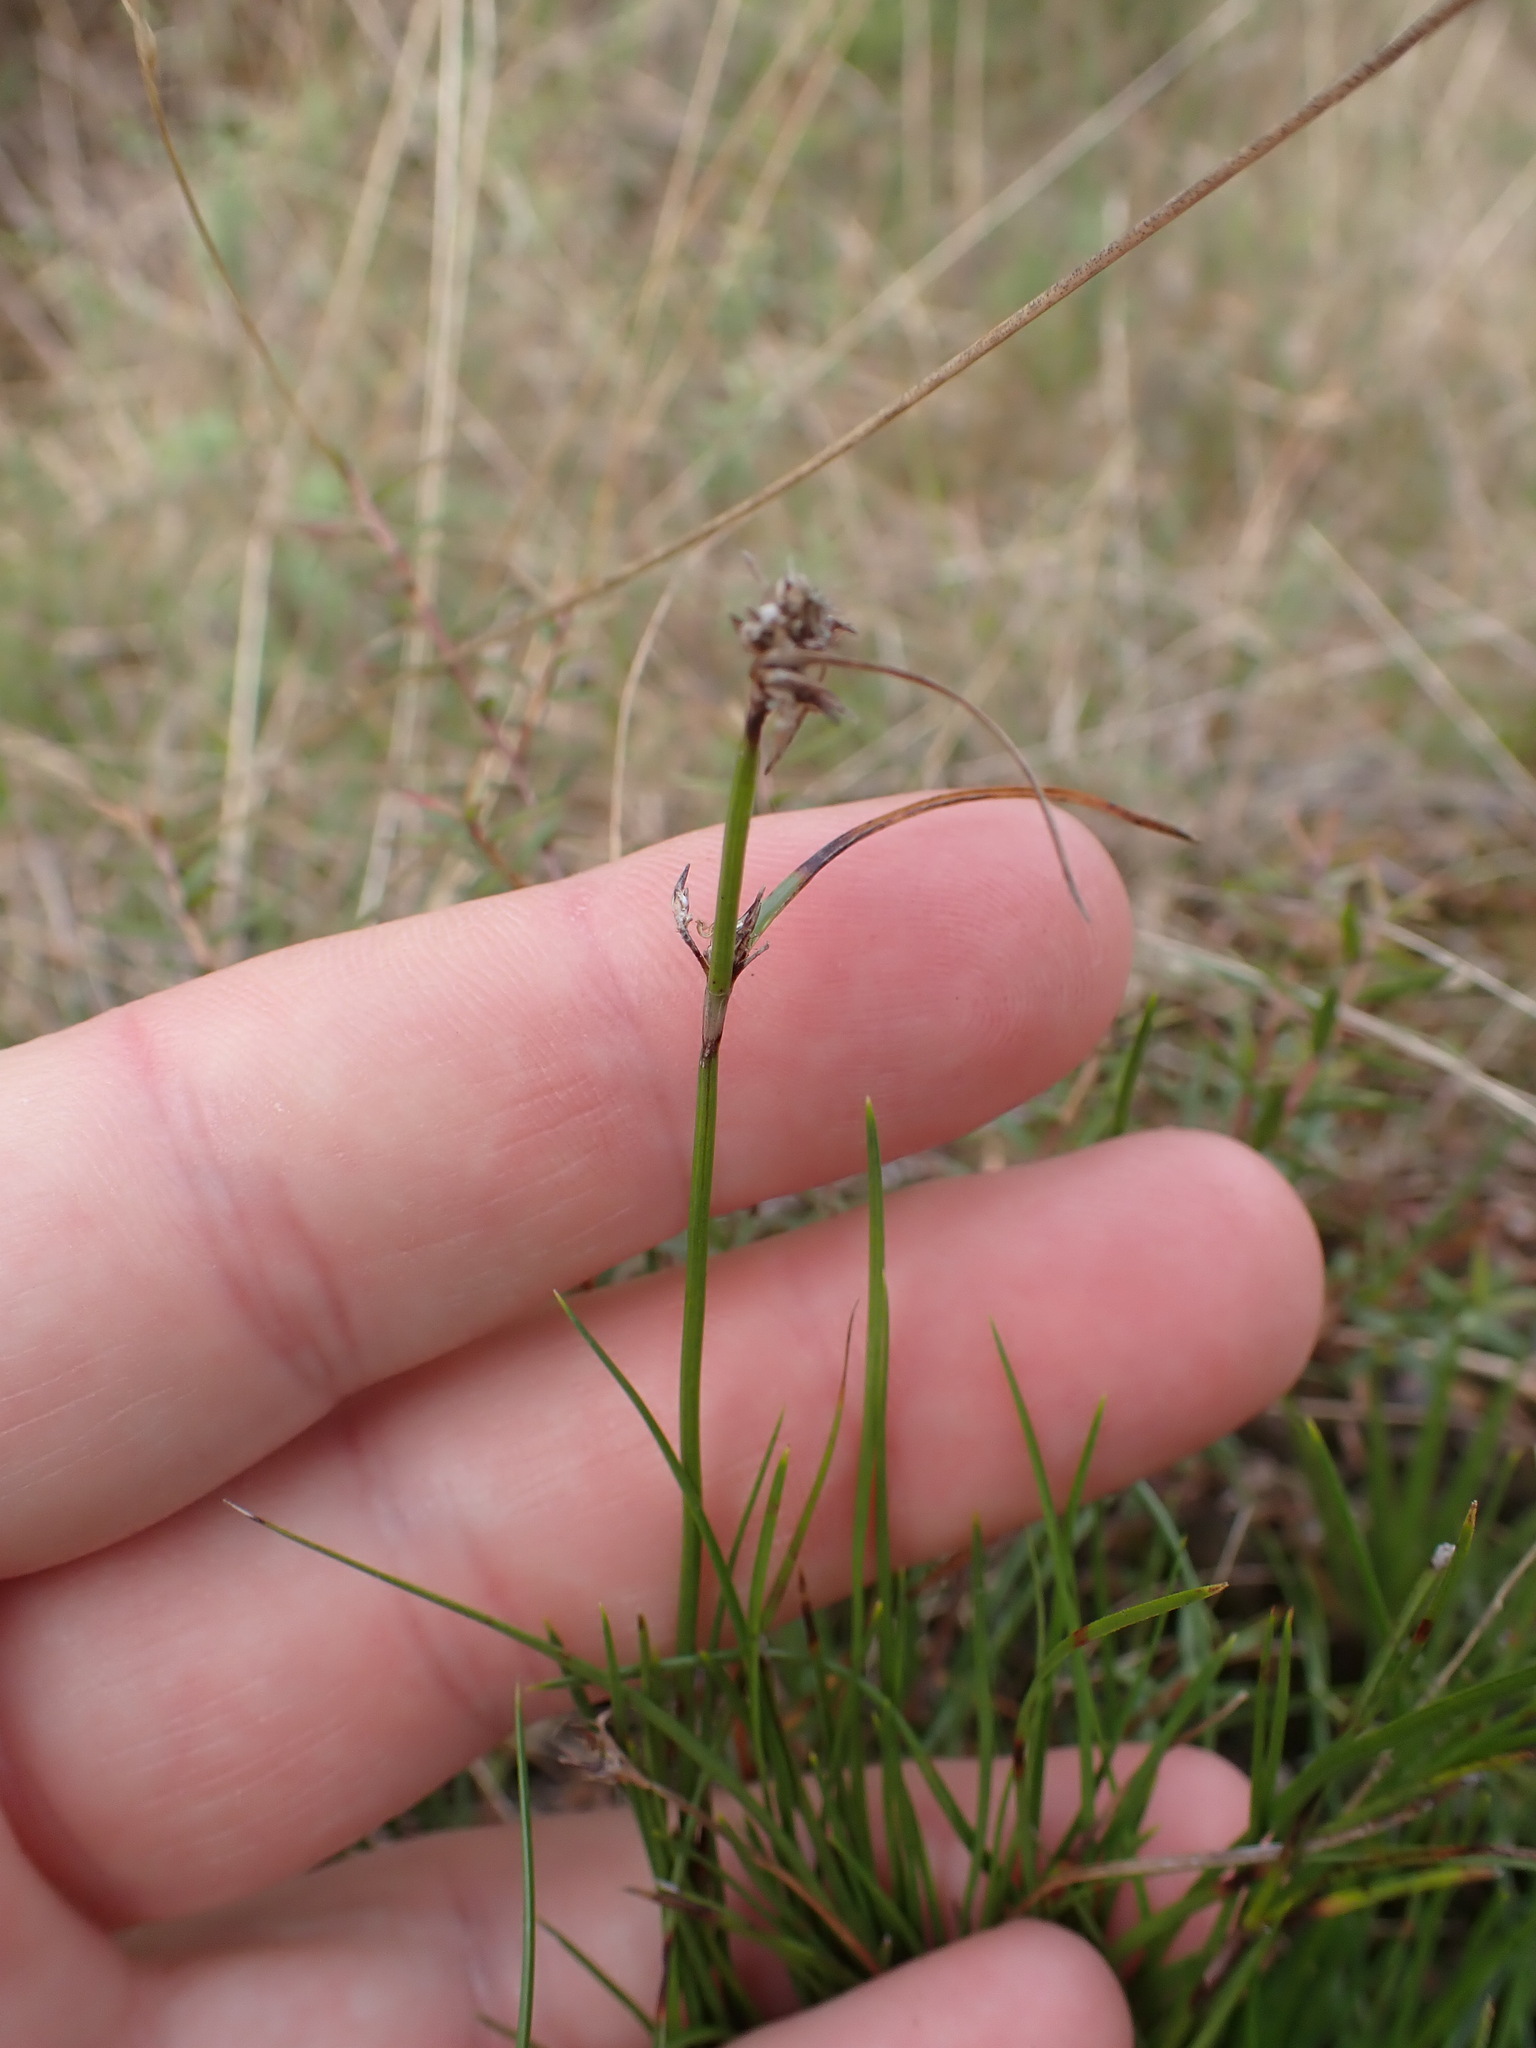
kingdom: Plantae
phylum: Tracheophyta
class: Liliopsida
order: Poales
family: Cyperaceae
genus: Schoenus
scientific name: Schoenus apogon
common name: Smooth bogrush
